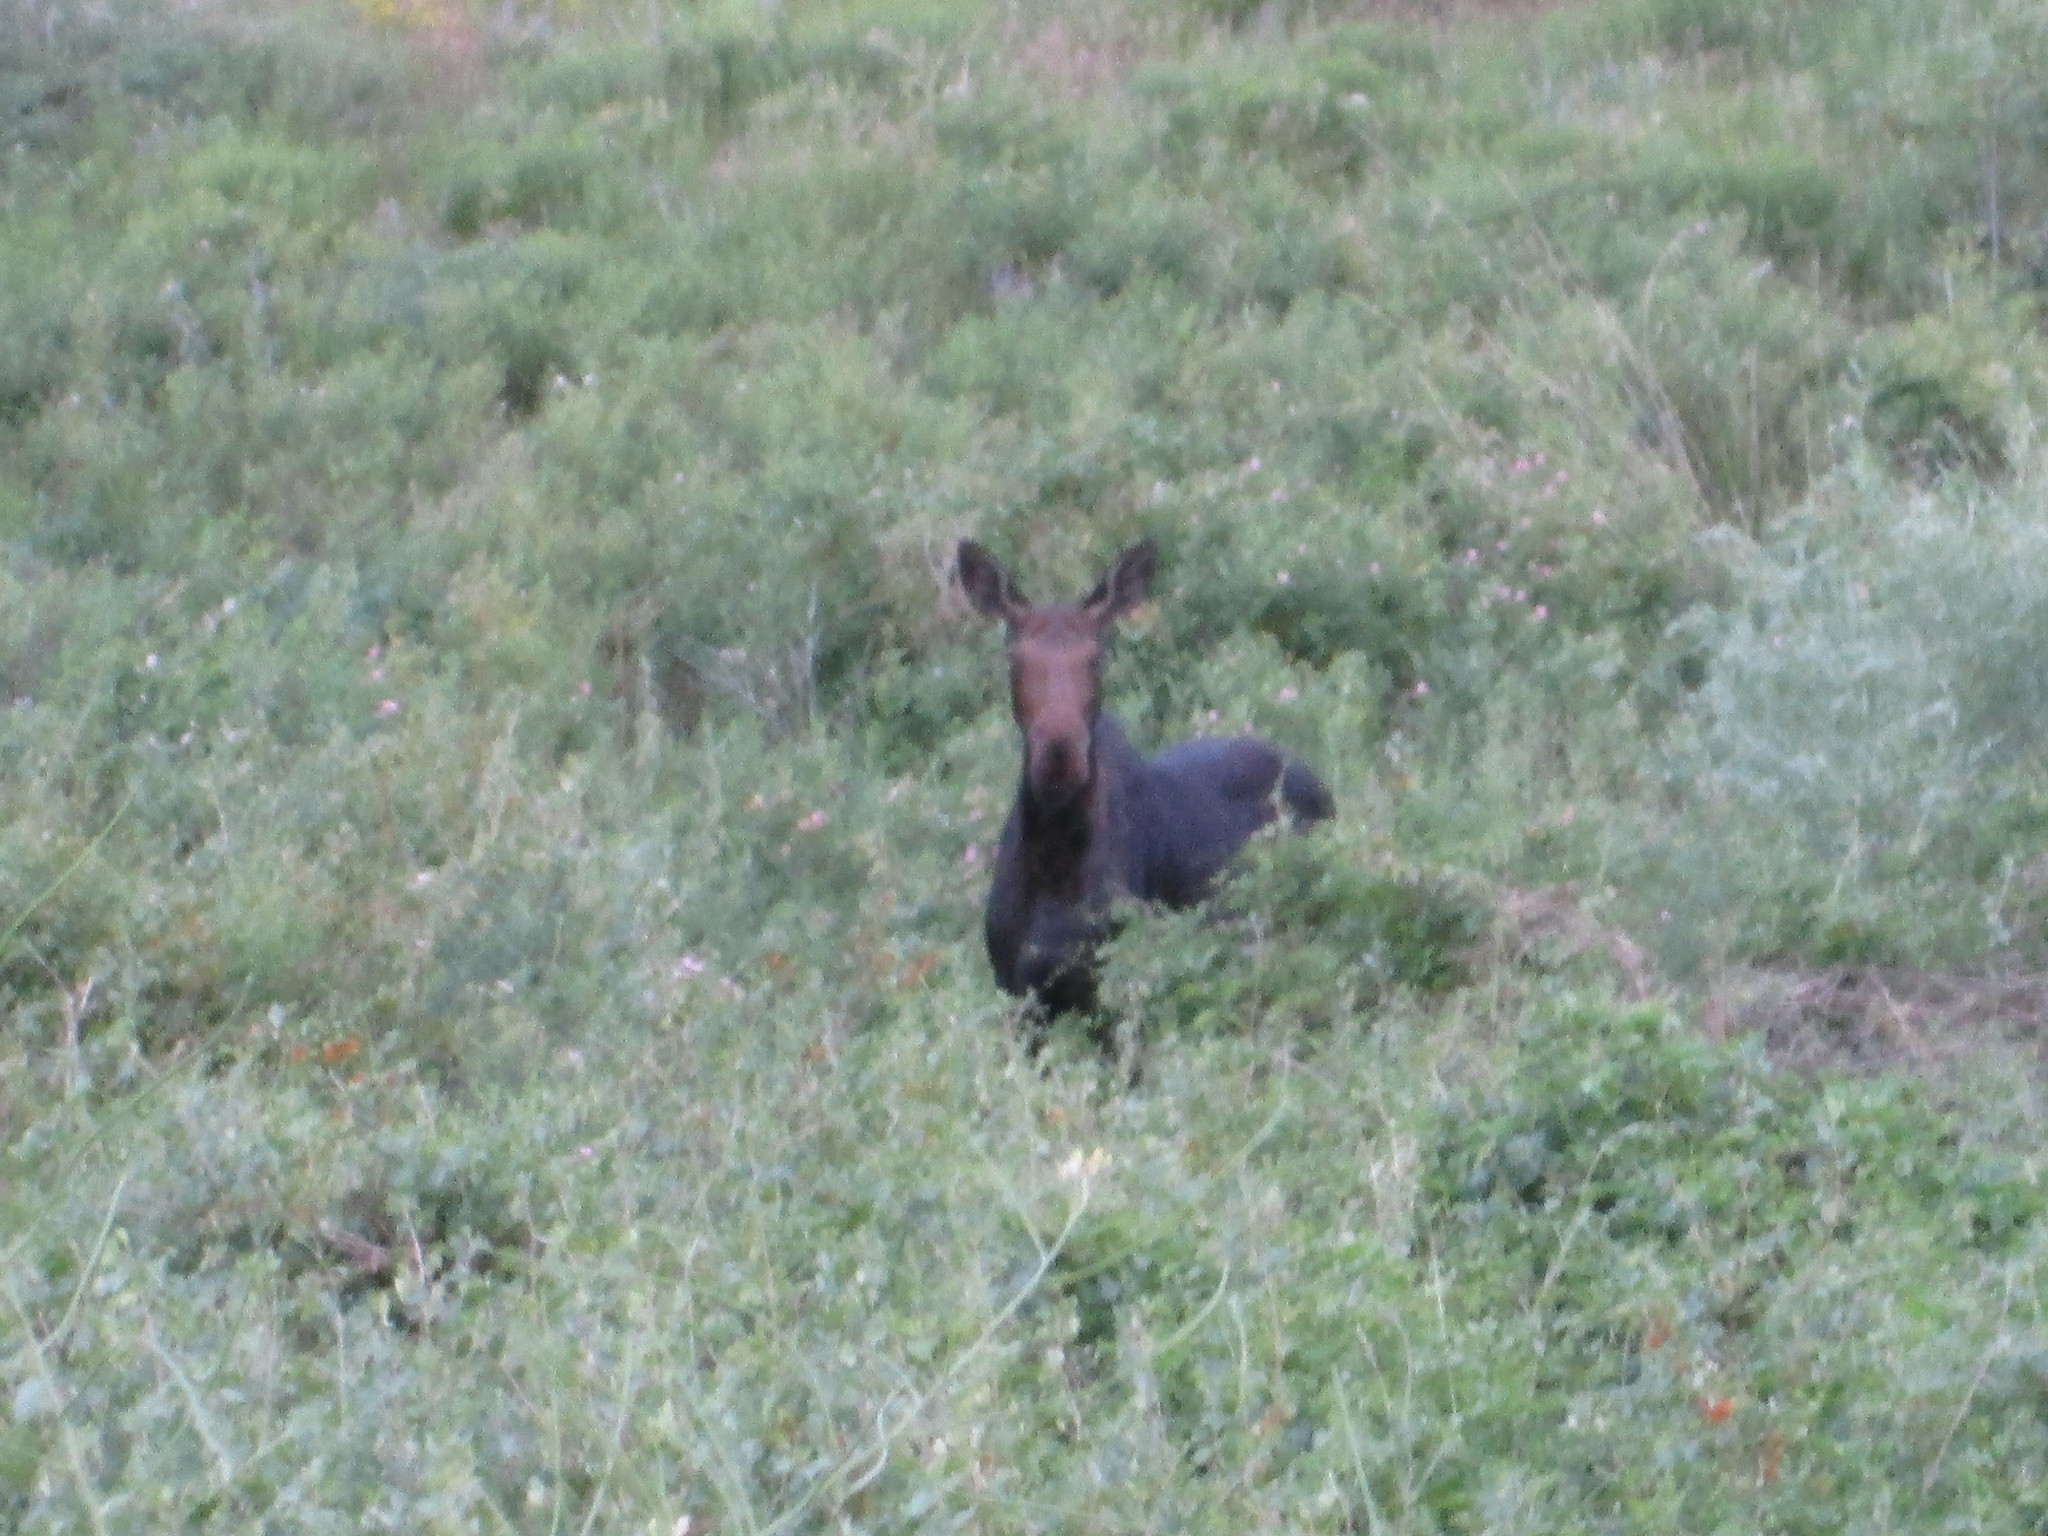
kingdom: Animalia
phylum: Chordata
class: Mammalia
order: Artiodactyla
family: Cervidae
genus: Alces
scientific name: Alces alces
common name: Moose
